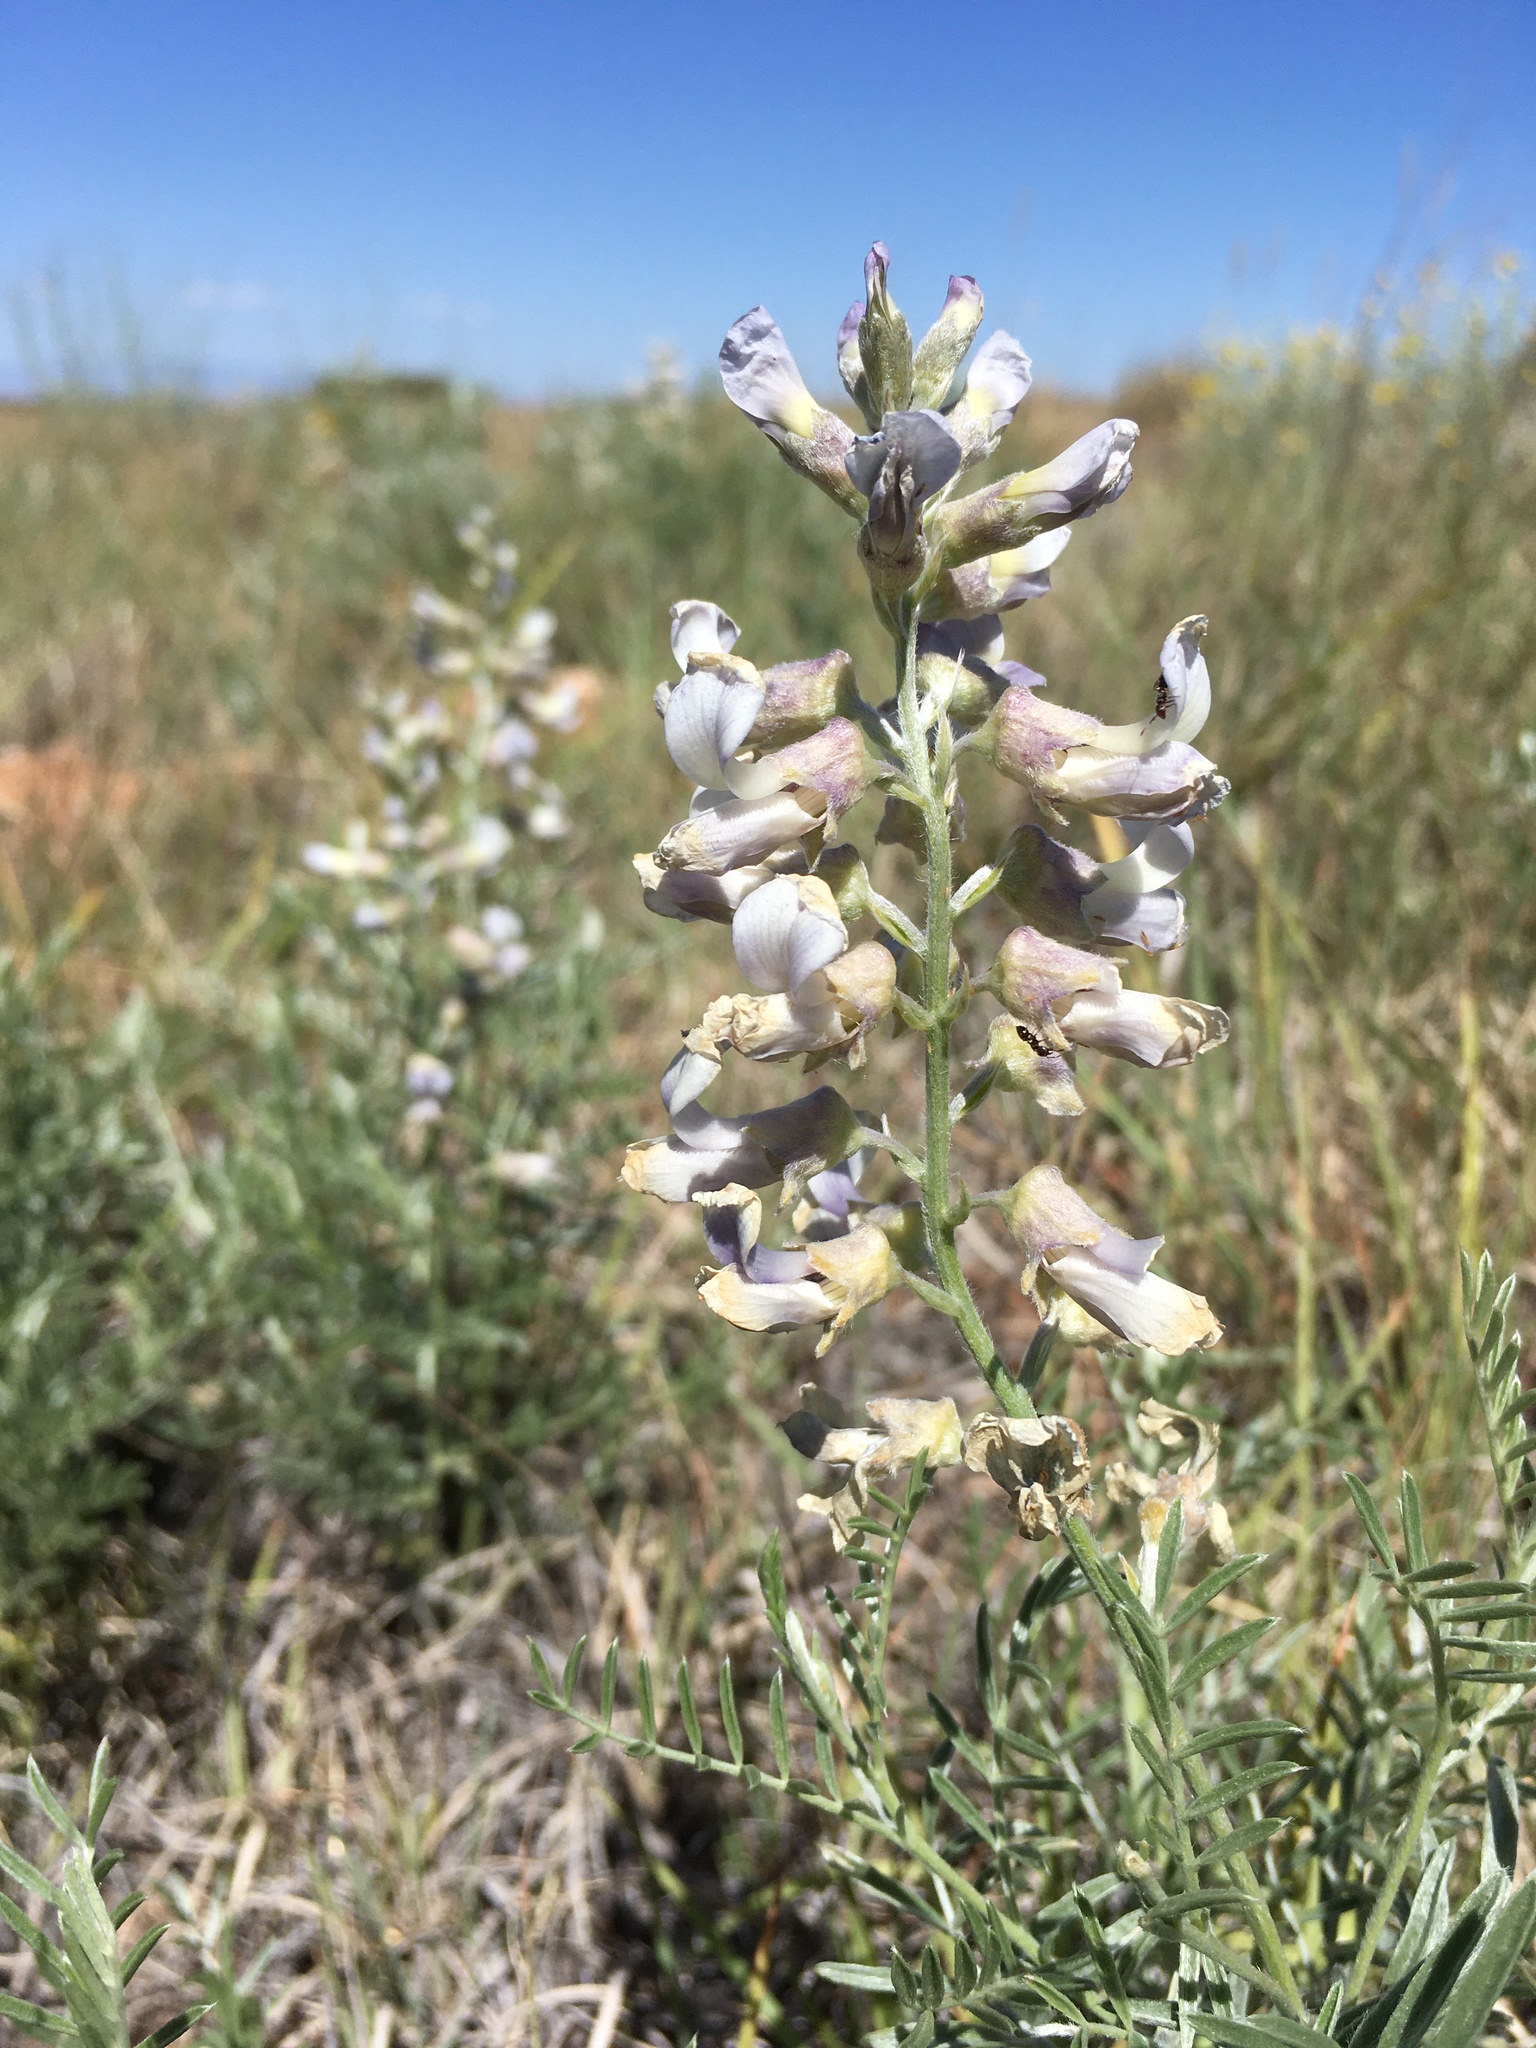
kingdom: Plantae
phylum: Tracheophyta
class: Magnoliopsida
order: Fabales
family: Fabaceae
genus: Sophora
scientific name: Sophora nuttalliana
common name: Silky sophora
